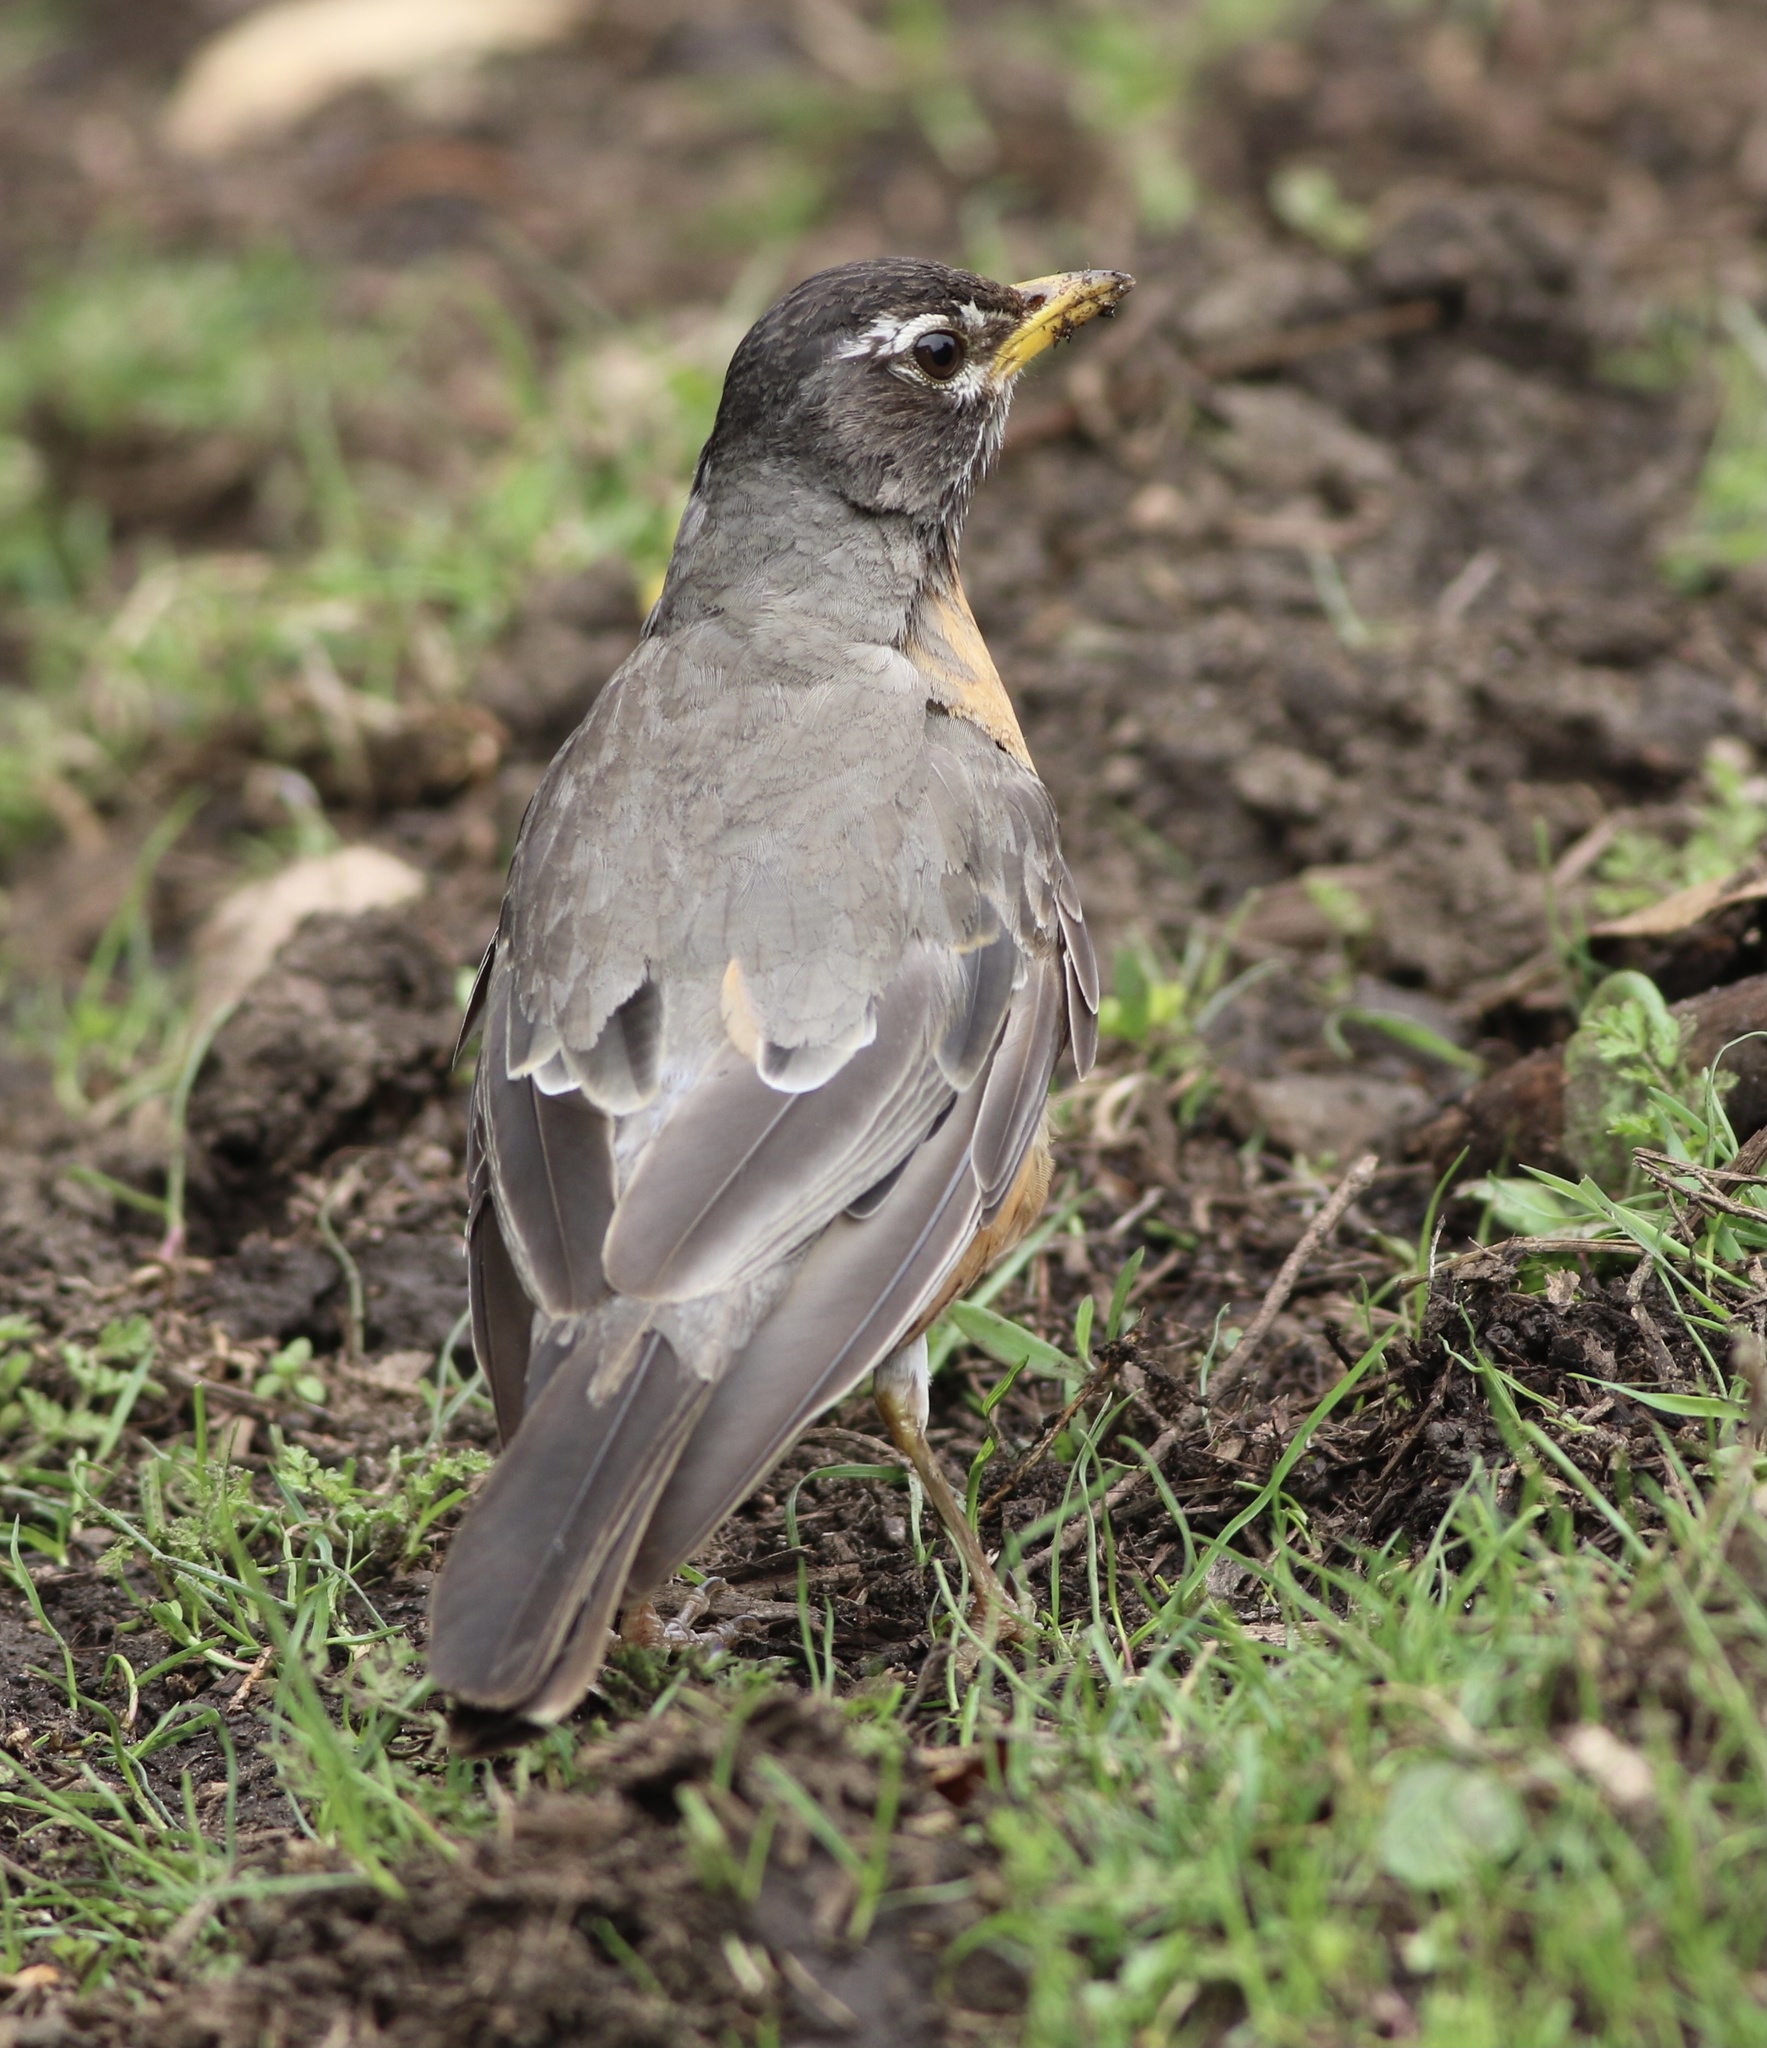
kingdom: Animalia
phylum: Chordata
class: Aves
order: Passeriformes
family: Turdidae
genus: Turdus
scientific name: Turdus migratorius
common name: American robin
